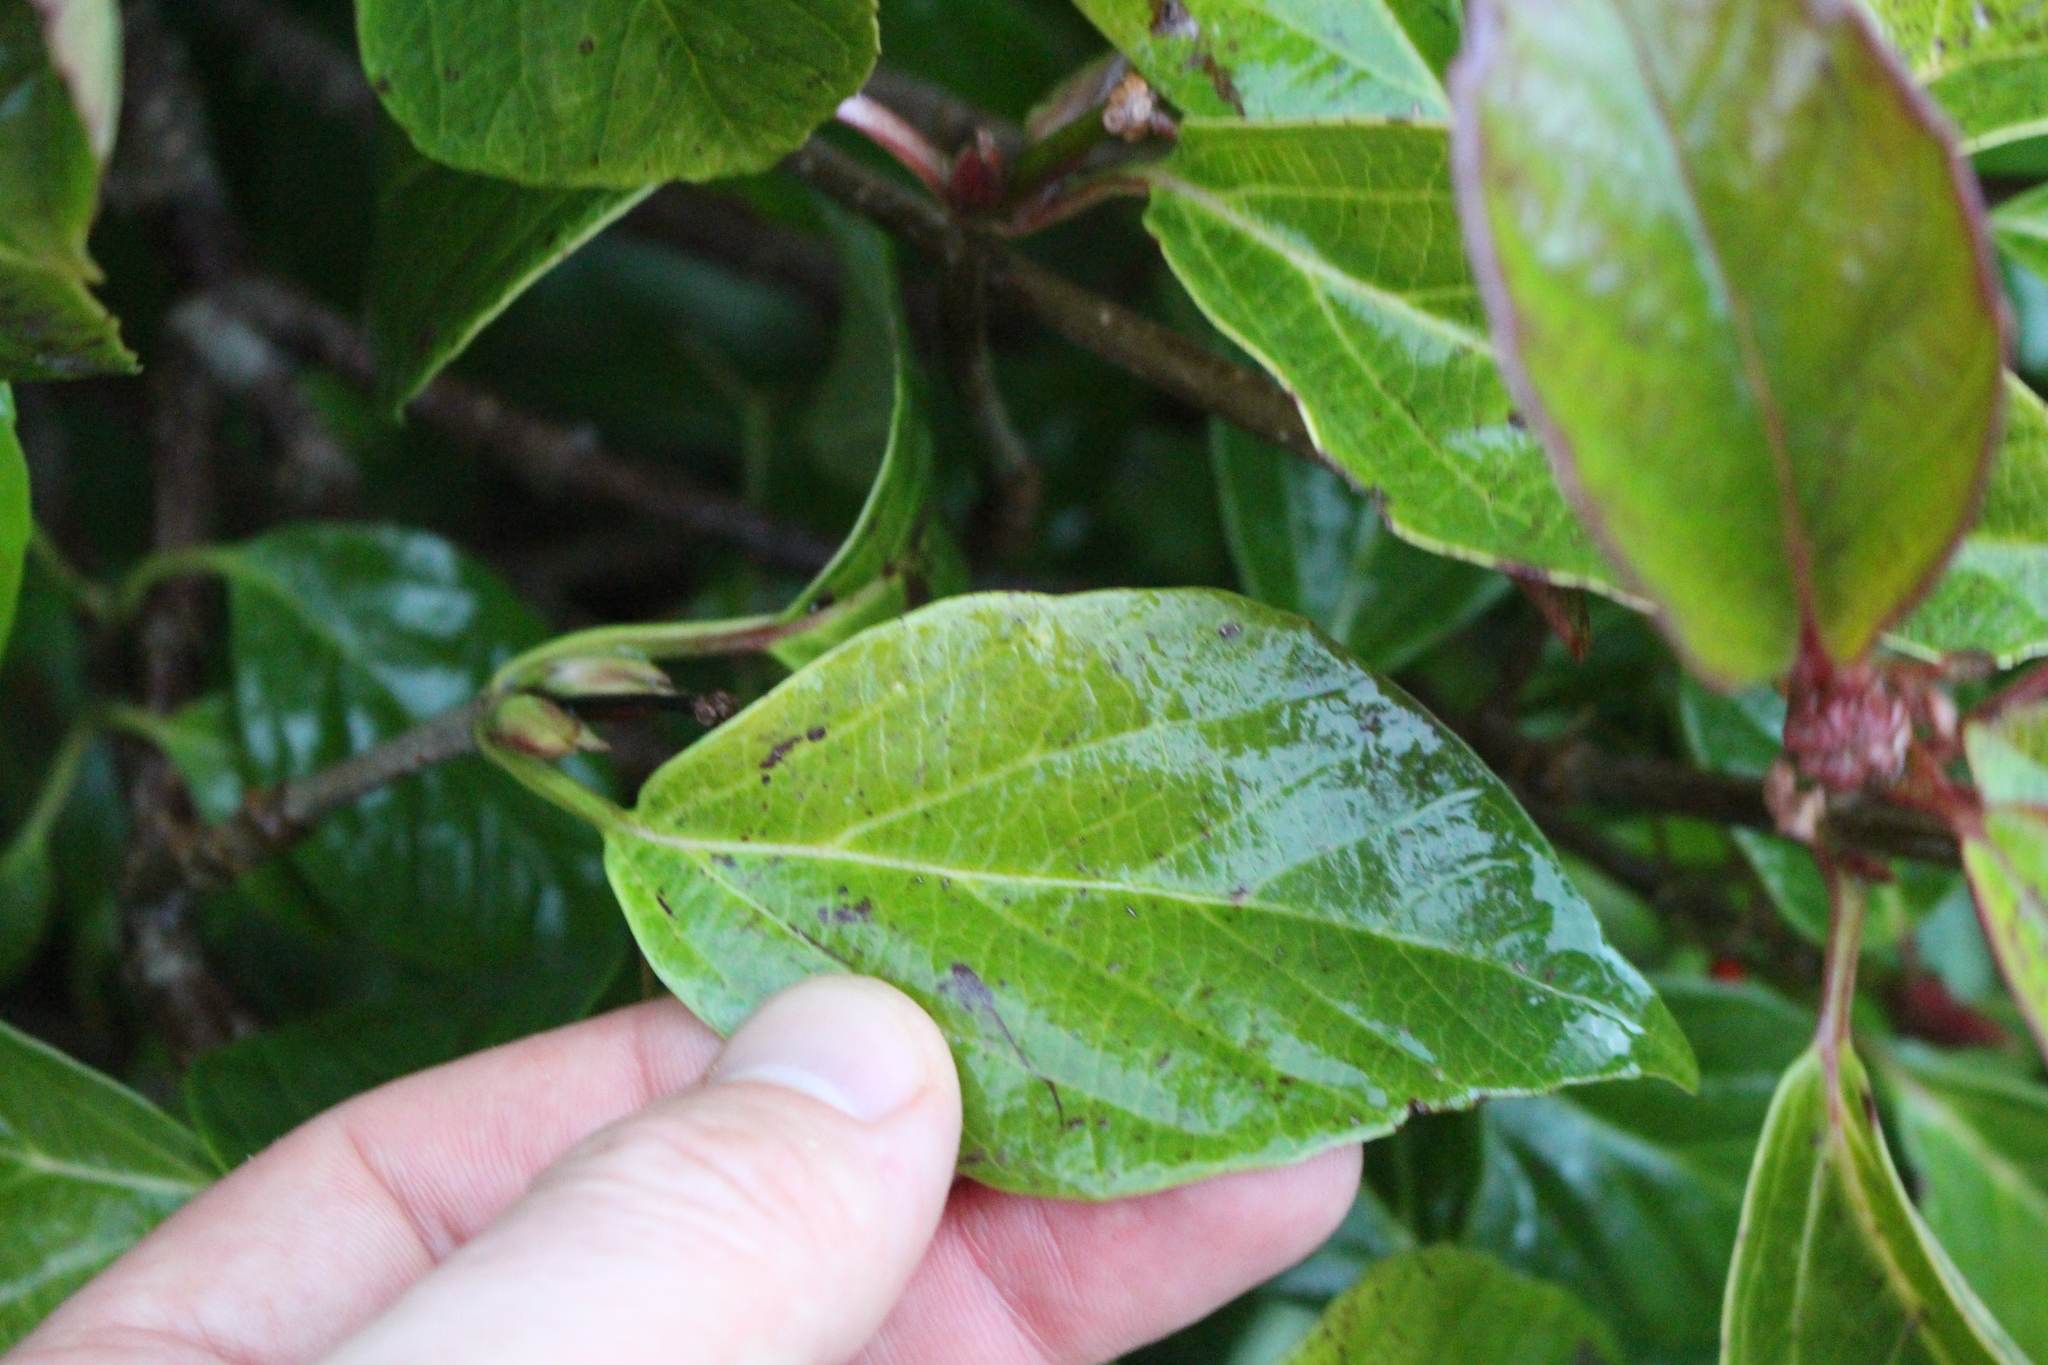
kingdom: Plantae
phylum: Tracheophyta
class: Magnoliopsida
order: Dipsacales
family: Viburnaceae
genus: Viburnum
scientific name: Viburnum japonicum
